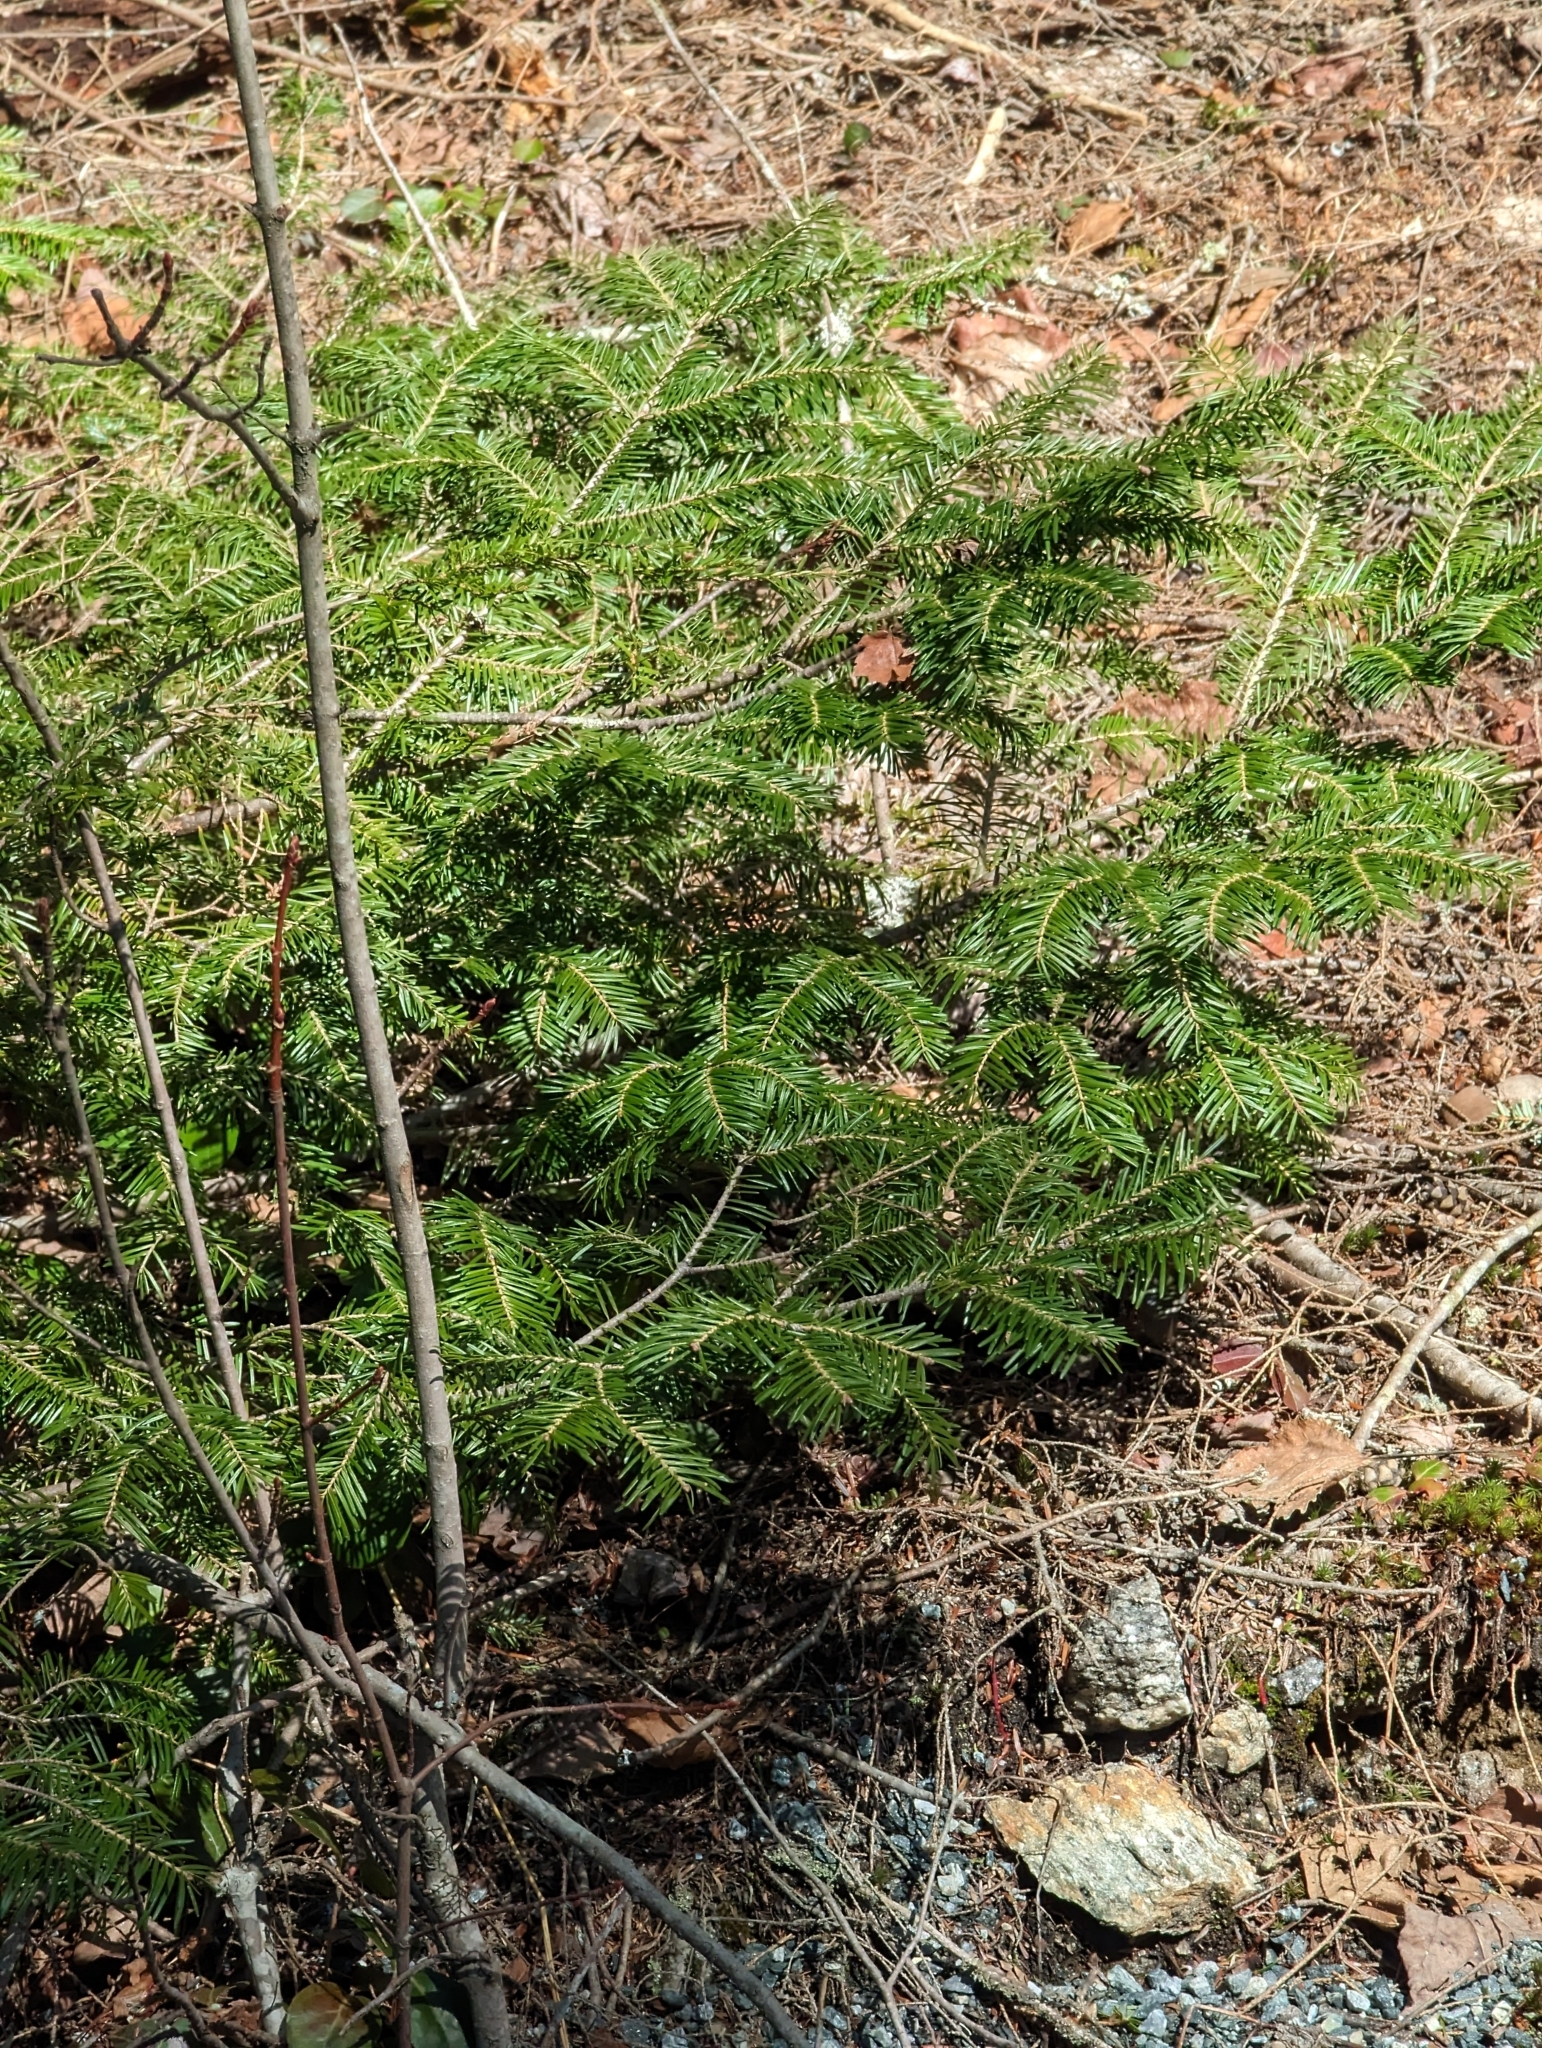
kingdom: Plantae
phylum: Tracheophyta
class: Pinopsida
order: Pinales
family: Pinaceae
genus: Abies
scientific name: Abies balsamea
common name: Balsam fir
